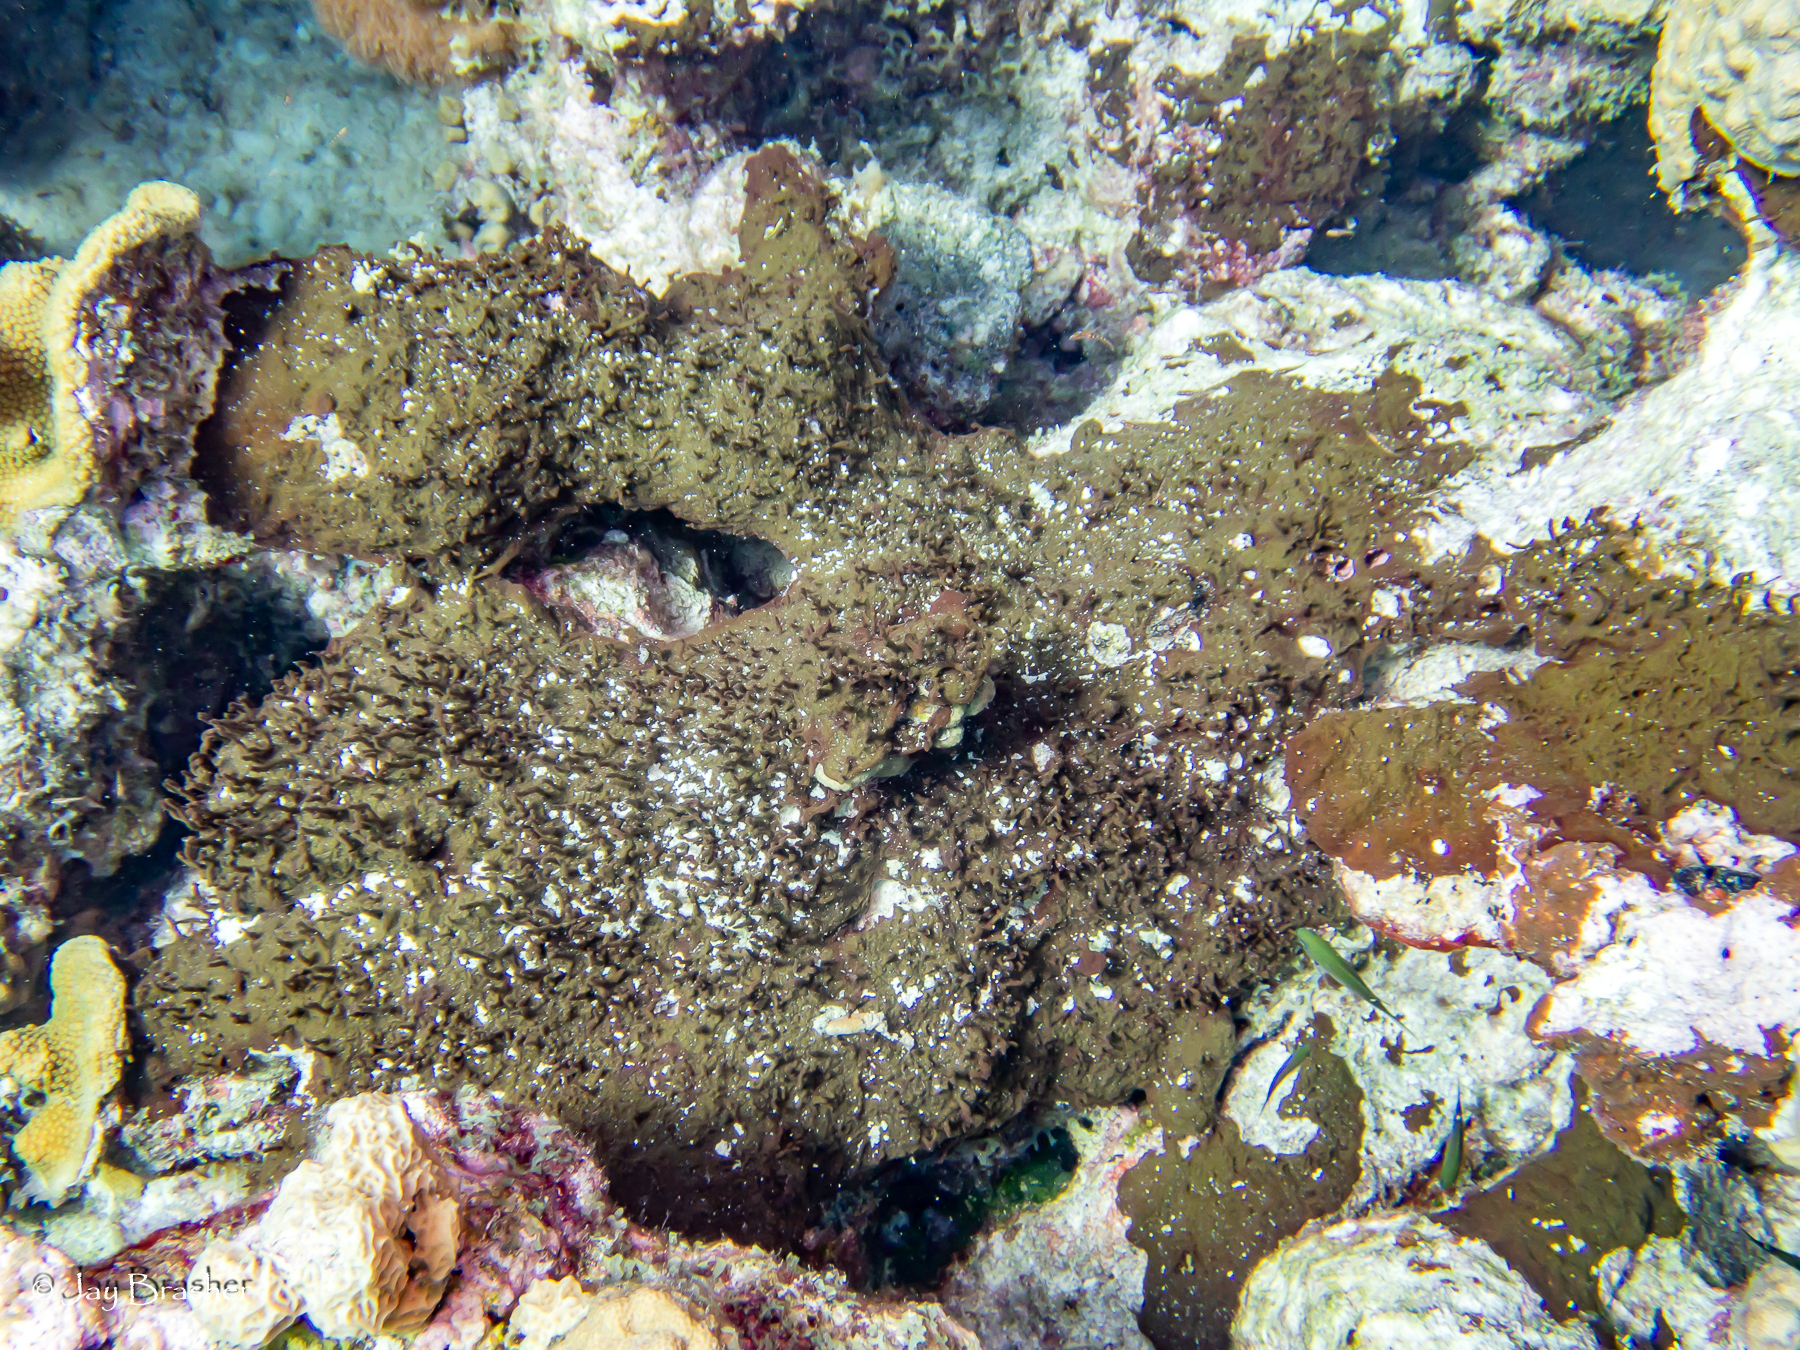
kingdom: Animalia
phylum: Porifera
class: Demospongiae
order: Bubarida
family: Dictyonellidae
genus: Dictyonella
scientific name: Dictyonella funicularis
